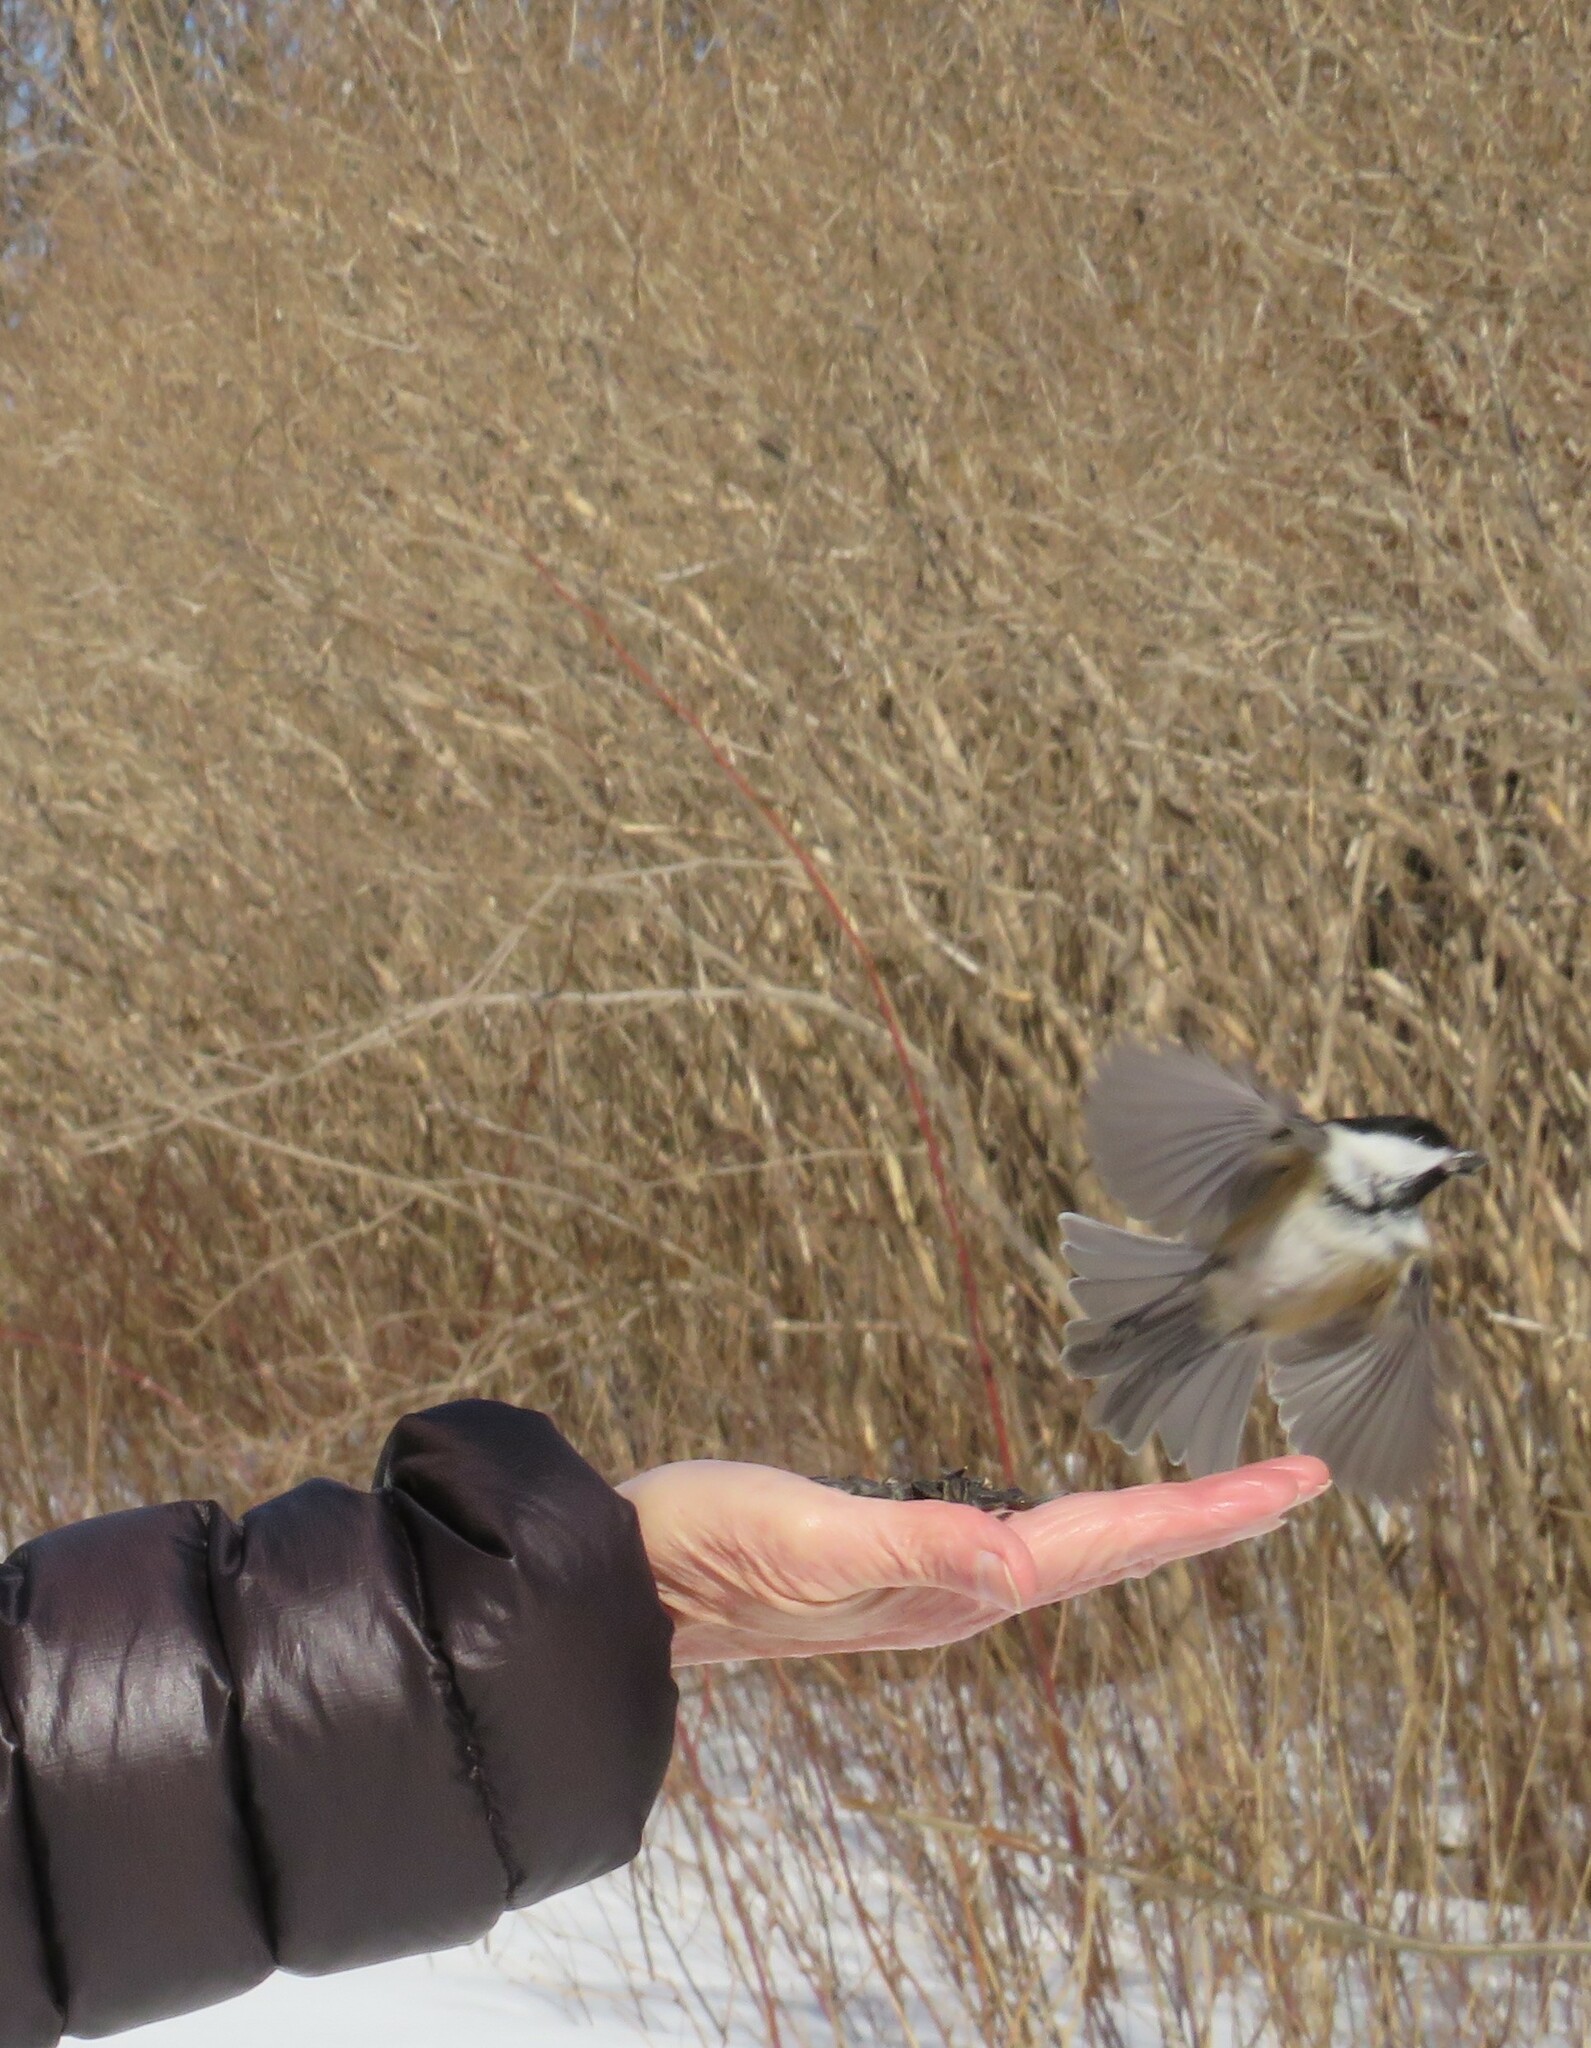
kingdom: Animalia
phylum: Chordata
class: Aves
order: Passeriformes
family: Paridae
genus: Poecile
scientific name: Poecile atricapillus
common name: Black-capped chickadee
